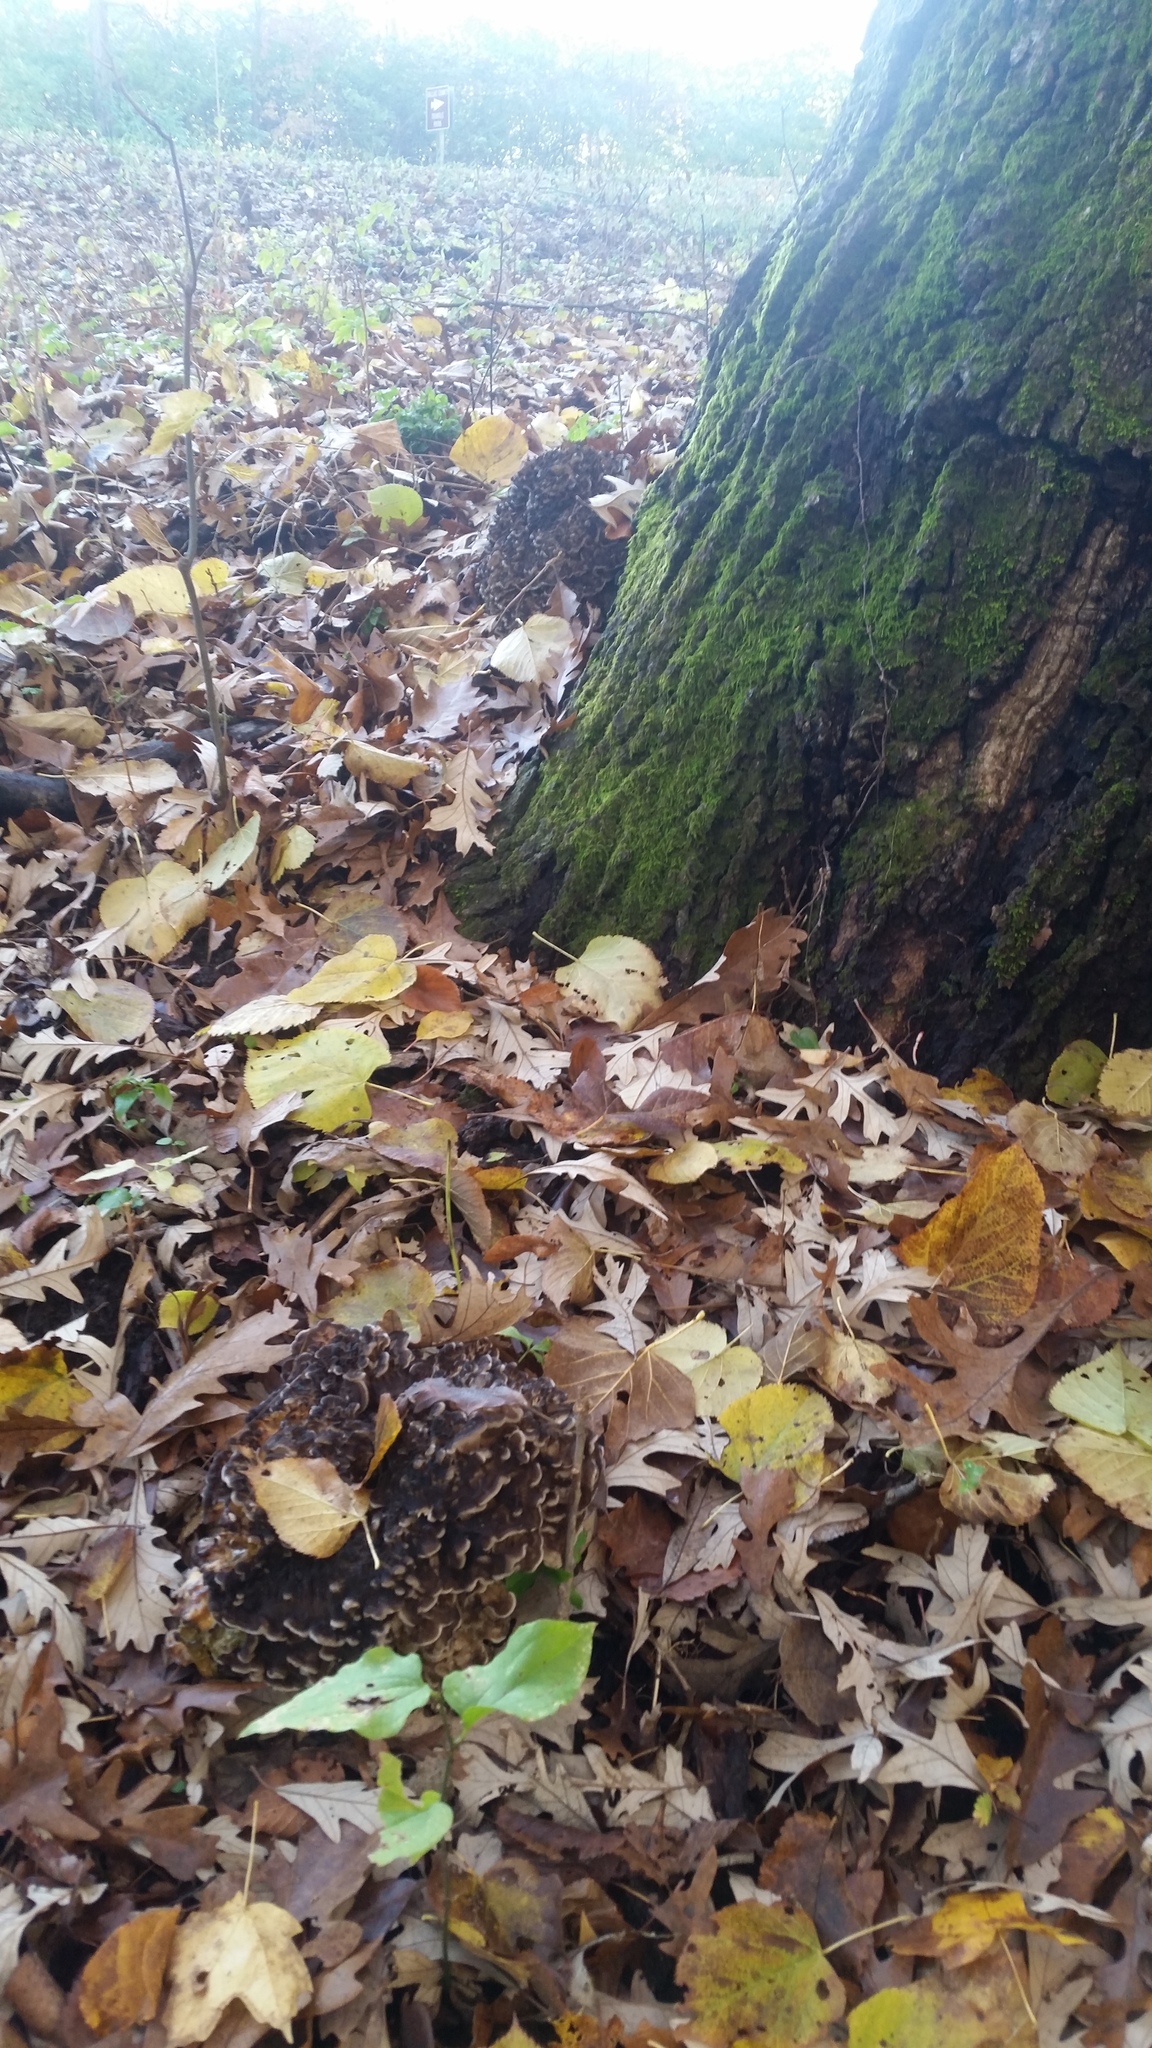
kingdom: Fungi
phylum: Basidiomycota
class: Agaricomycetes
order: Polyporales
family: Grifolaceae
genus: Grifola
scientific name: Grifola frondosa
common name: Hen of the woods
